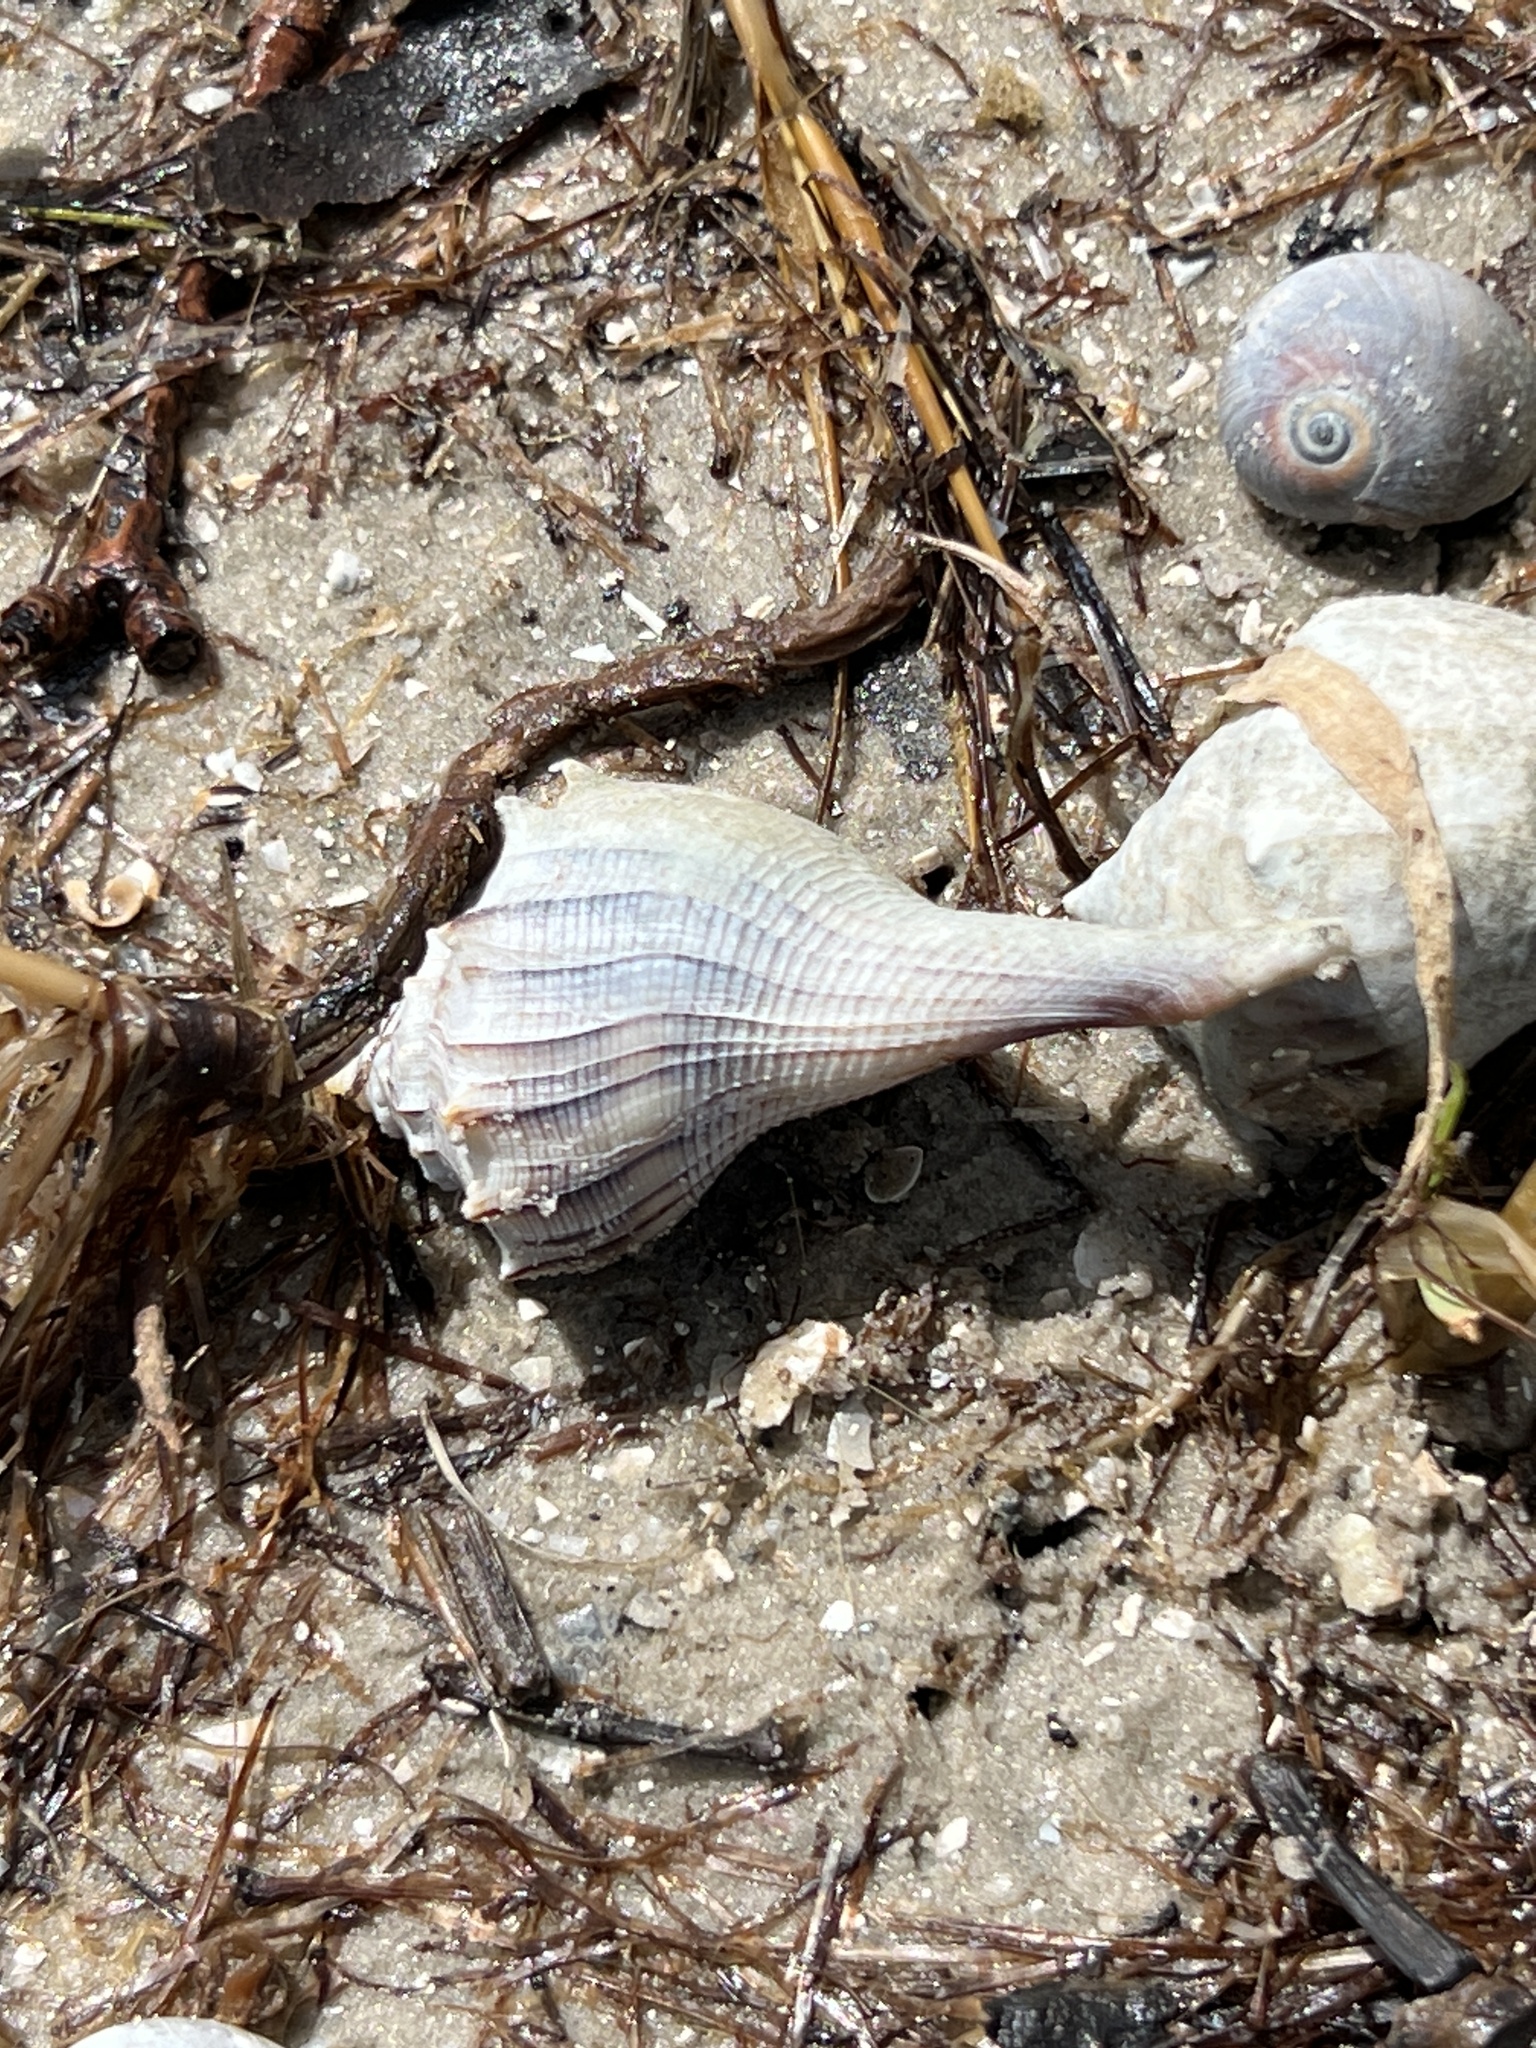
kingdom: Animalia
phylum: Mollusca
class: Gastropoda
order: Neogastropoda
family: Busyconidae
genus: Sinistrofulgur
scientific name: Sinistrofulgur pulleyi
